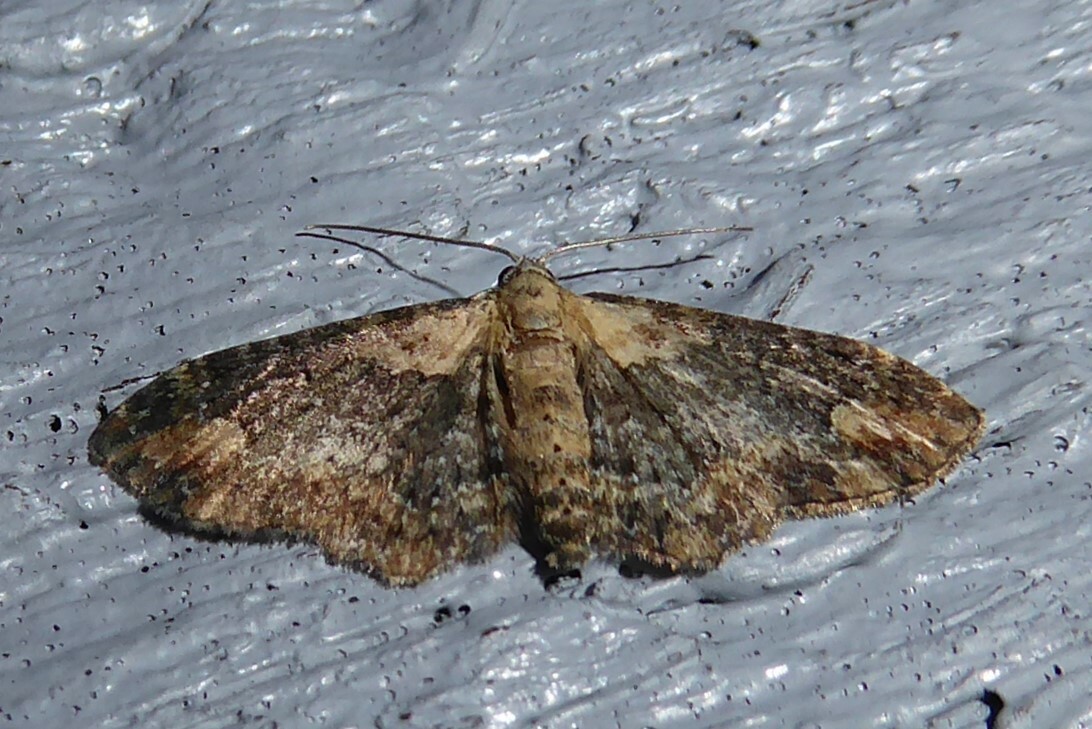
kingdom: Animalia
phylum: Arthropoda
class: Insecta
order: Lepidoptera
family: Geometridae
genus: Pasiphilodes
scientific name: Pasiphilodes testulata
